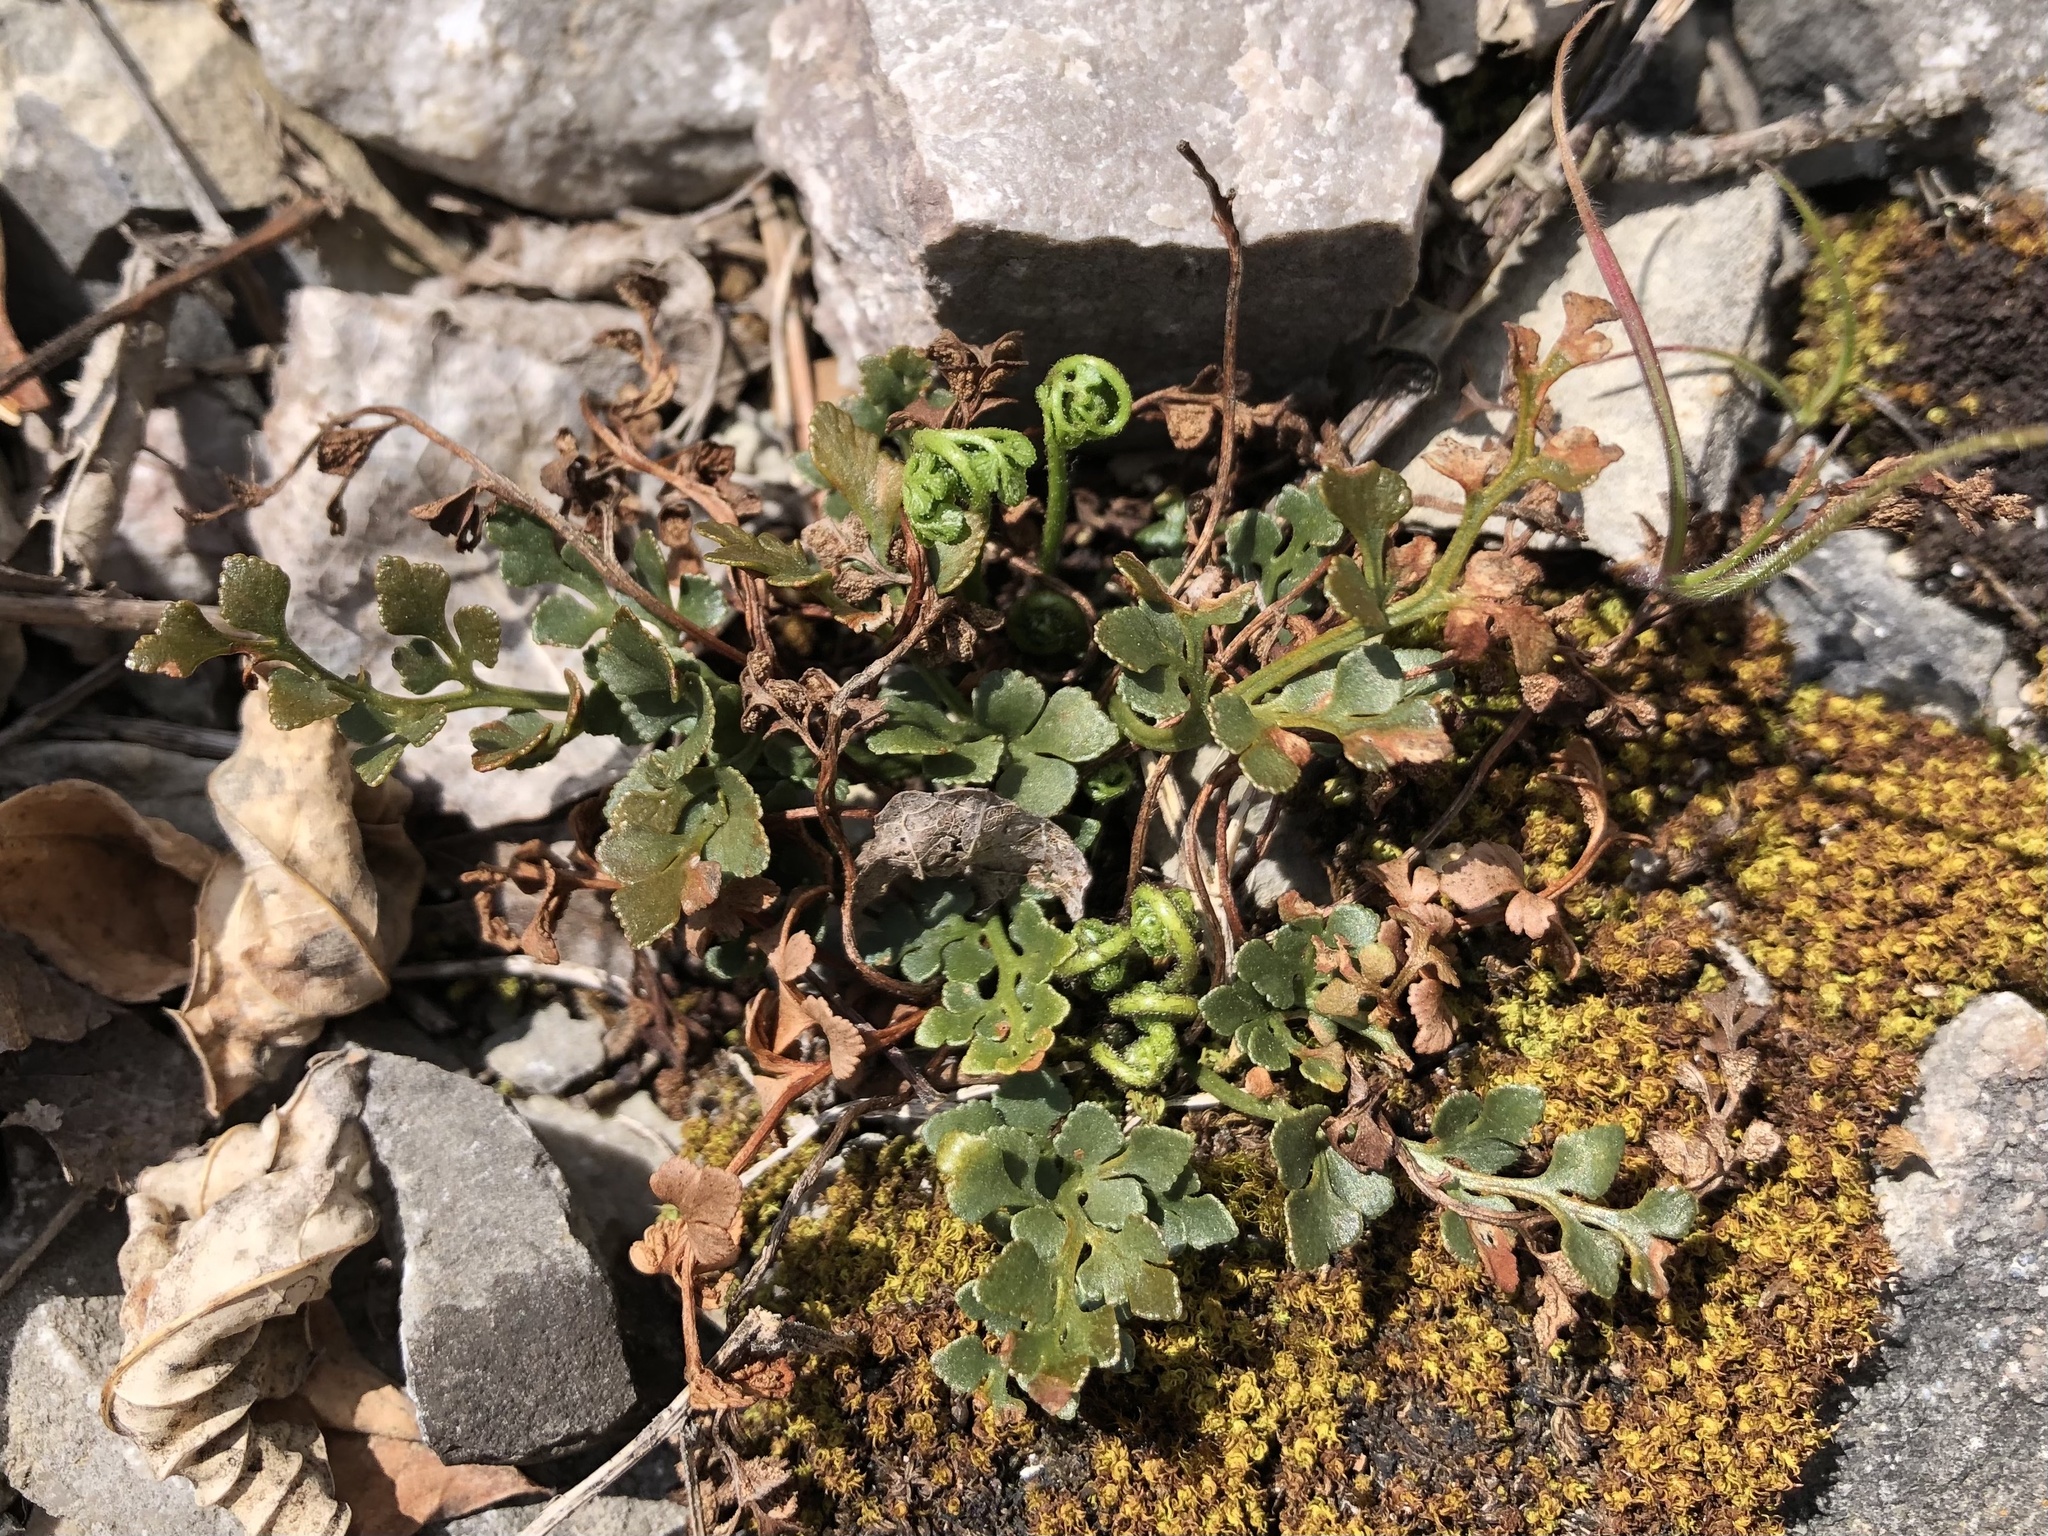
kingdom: Plantae
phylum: Tracheophyta
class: Polypodiopsida
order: Polypodiales
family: Aspleniaceae
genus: Asplenium
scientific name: Asplenium ruta-muraria
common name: Wall-rue
